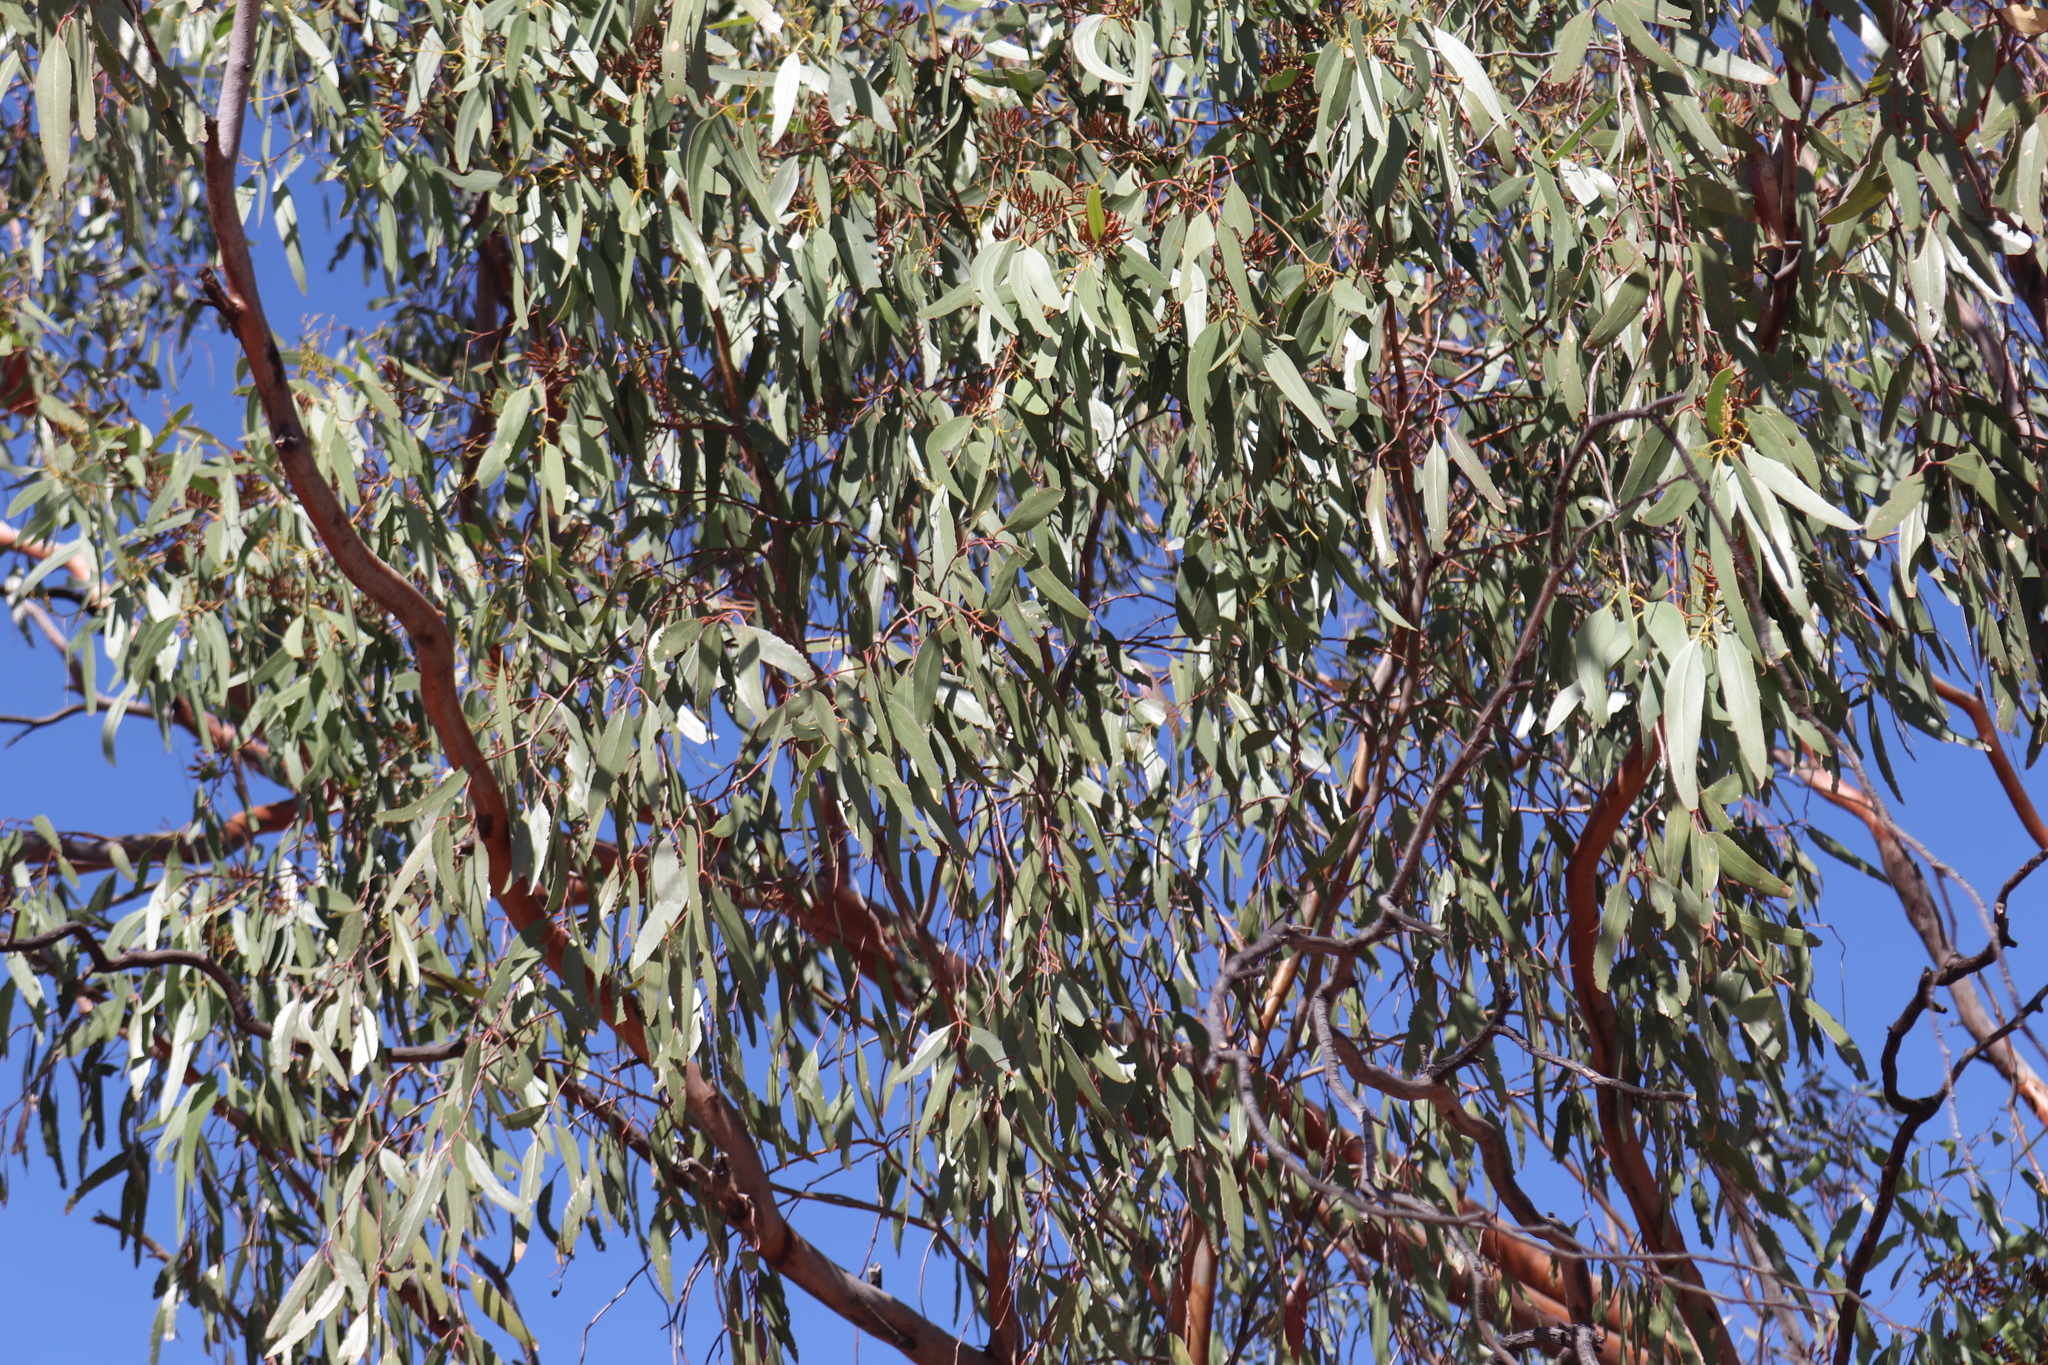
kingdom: Plantae
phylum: Tracheophyta
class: Magnoliopsida
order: Myrtales
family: Myrtaceae
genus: Eucalyptus
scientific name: Eucalyptus ochrophloia
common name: Yapunyah
